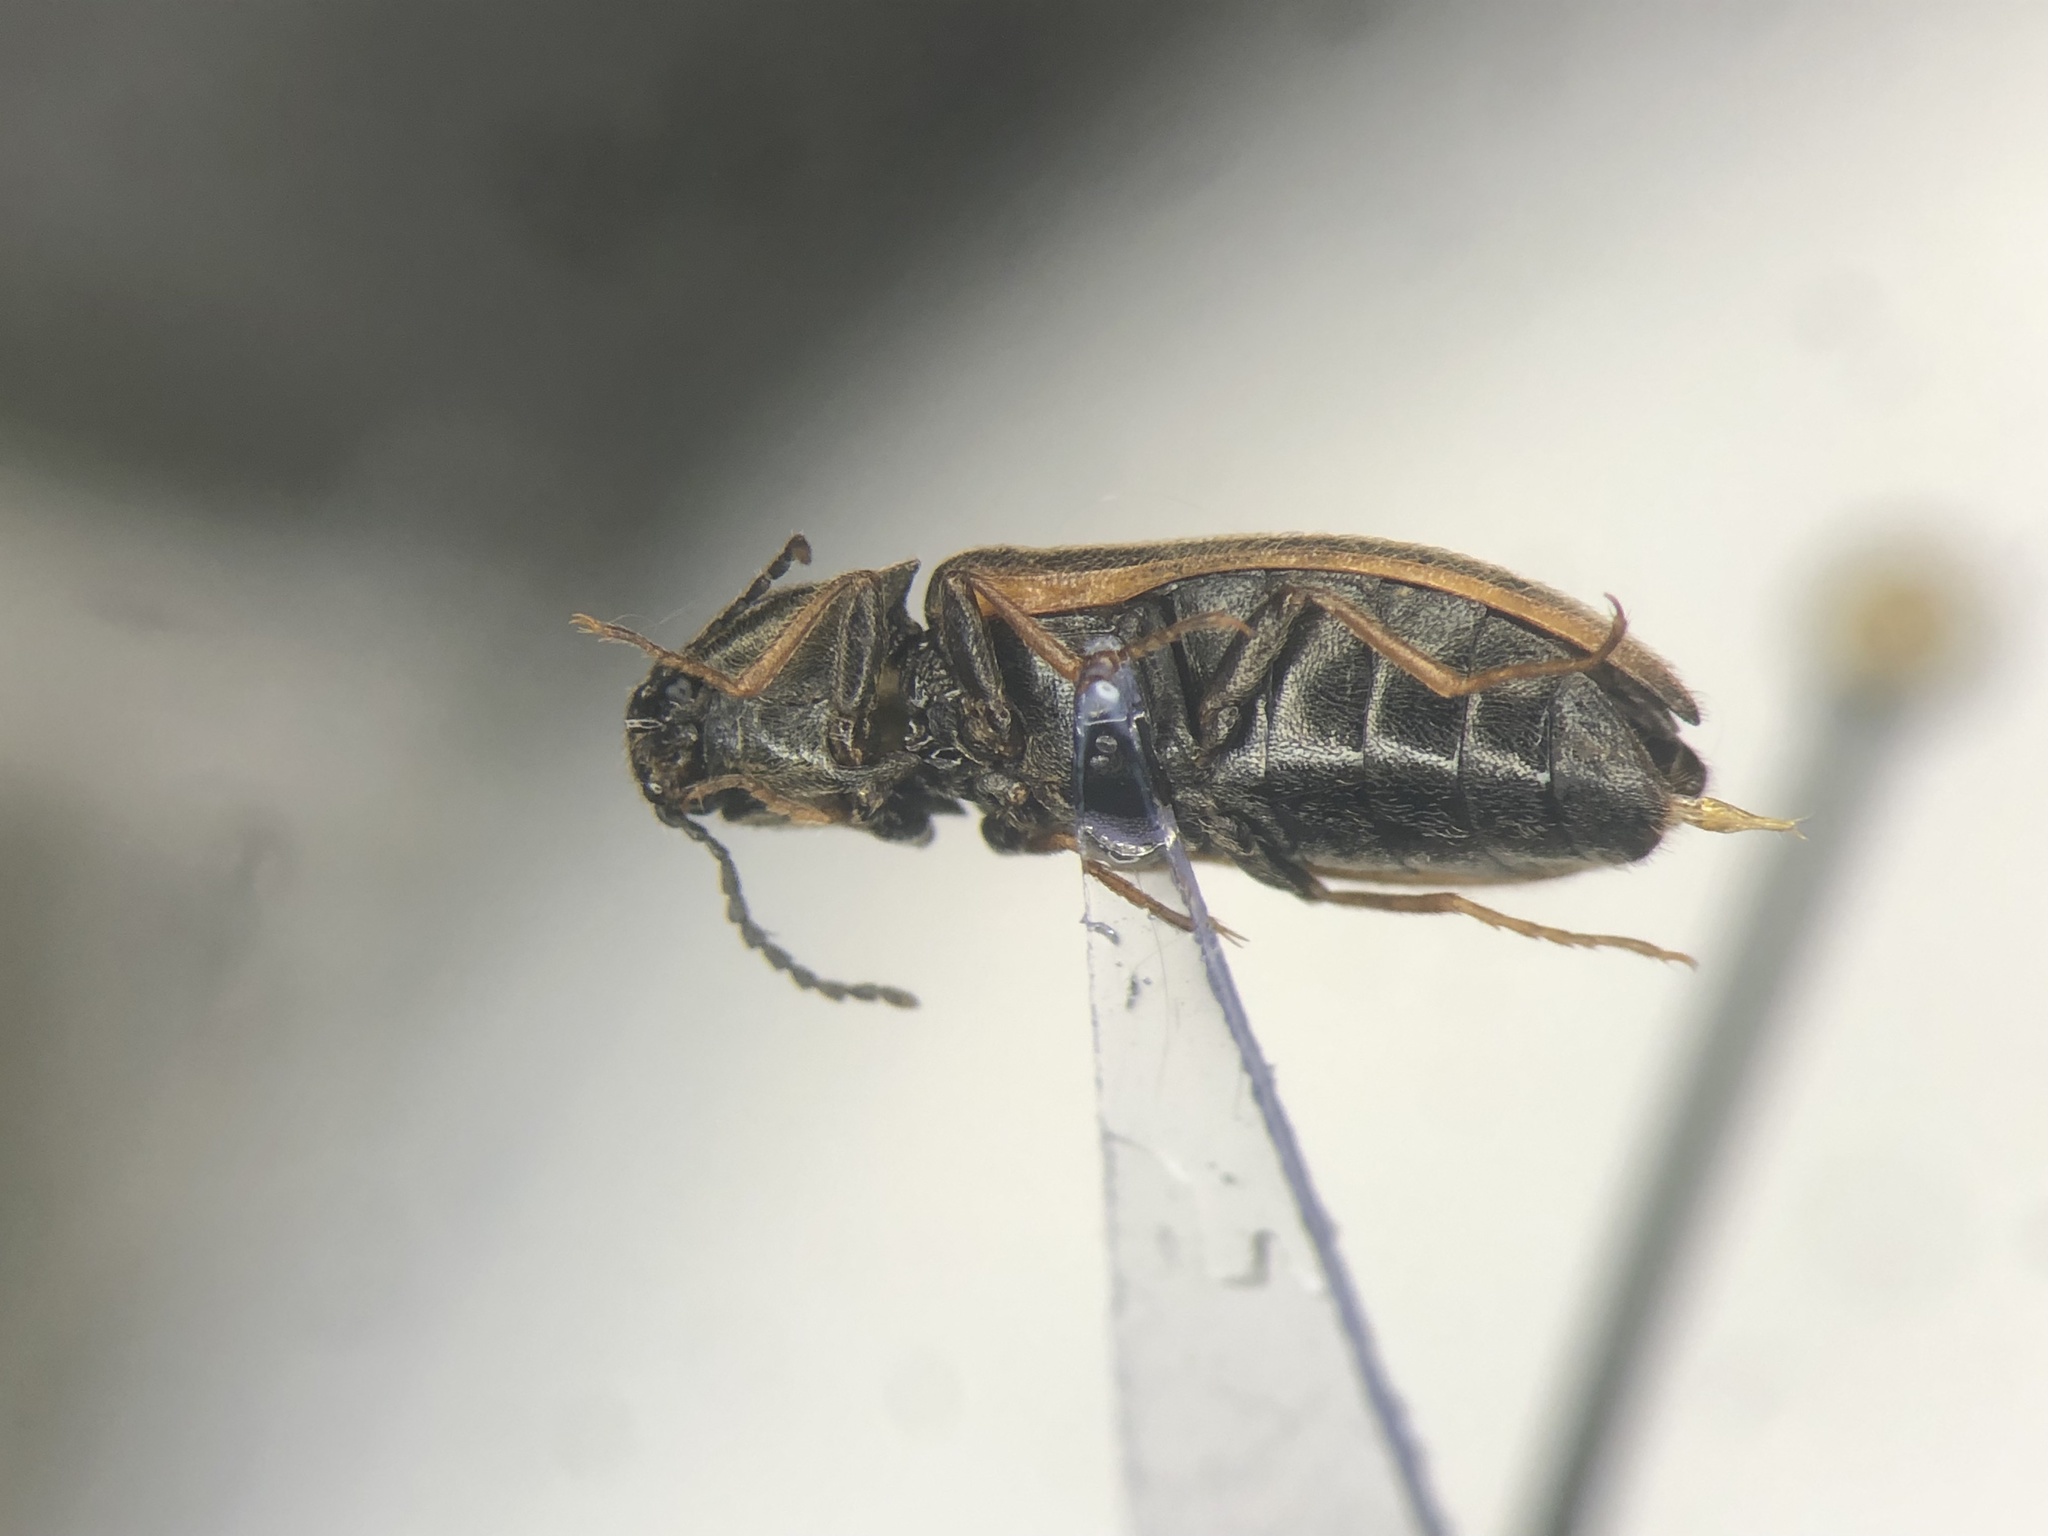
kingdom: Animalia
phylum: Arthropoda
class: Insecta
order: Coleoptera
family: Elateridae
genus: Eanus
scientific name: Eanus decoratus
